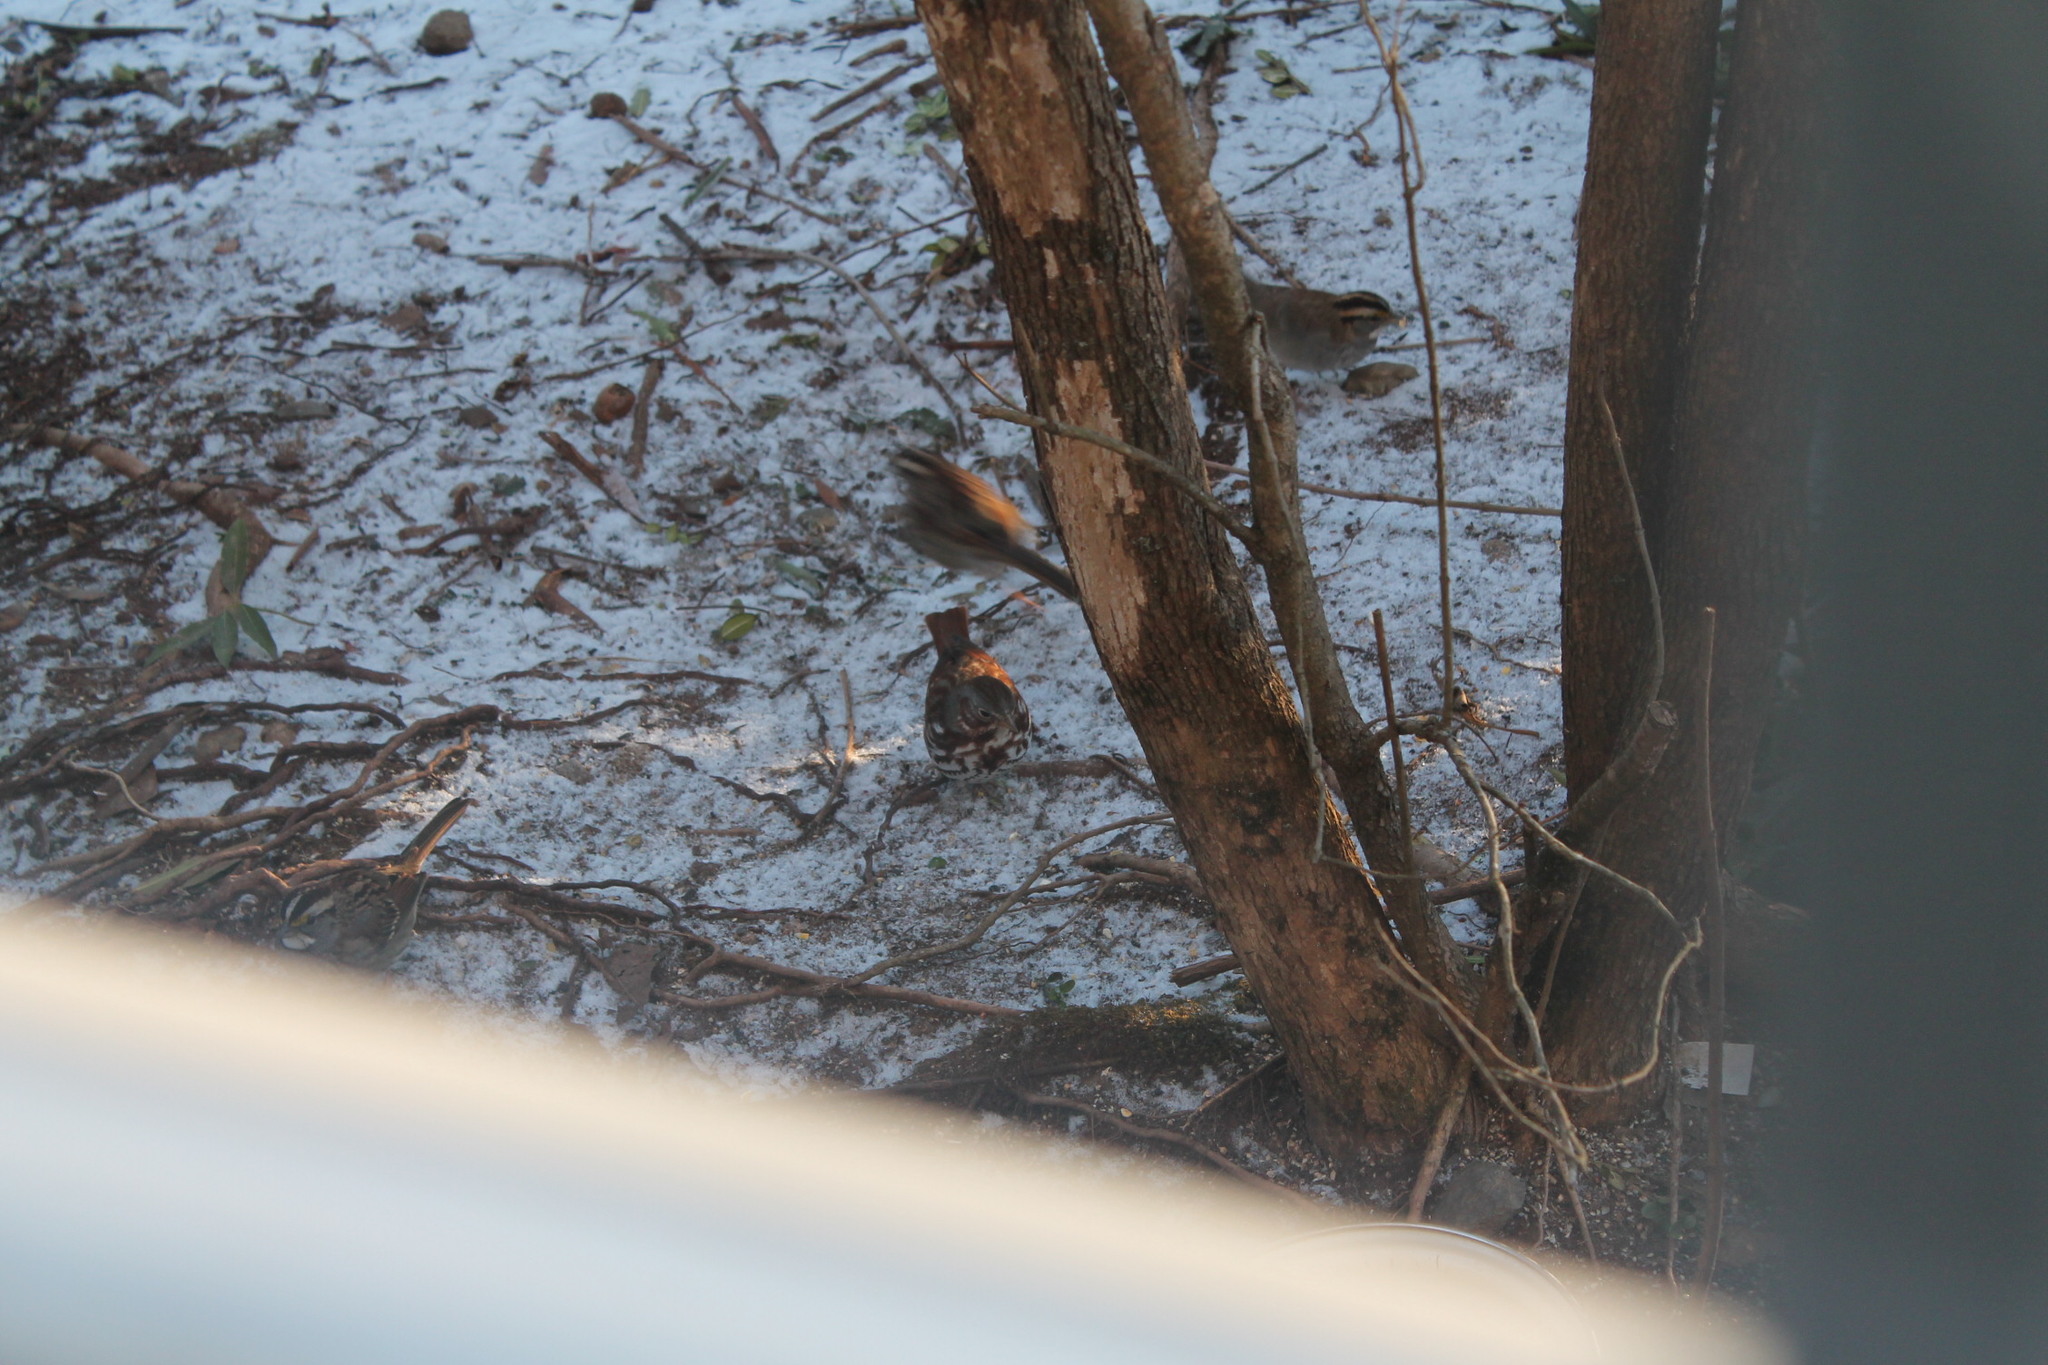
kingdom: Animalia
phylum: Chordata
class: Aves
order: Passeriformes
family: Passerellidae
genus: Passerella
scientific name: Passerella iliaca
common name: Fox sparrow
